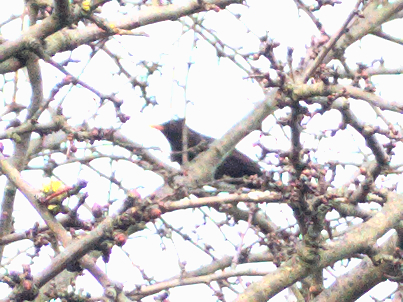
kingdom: Animalia
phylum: Chordata
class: Aves
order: Passeriformes
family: Turdidae
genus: Turdus
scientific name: Turdus merula
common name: Common blackbird
